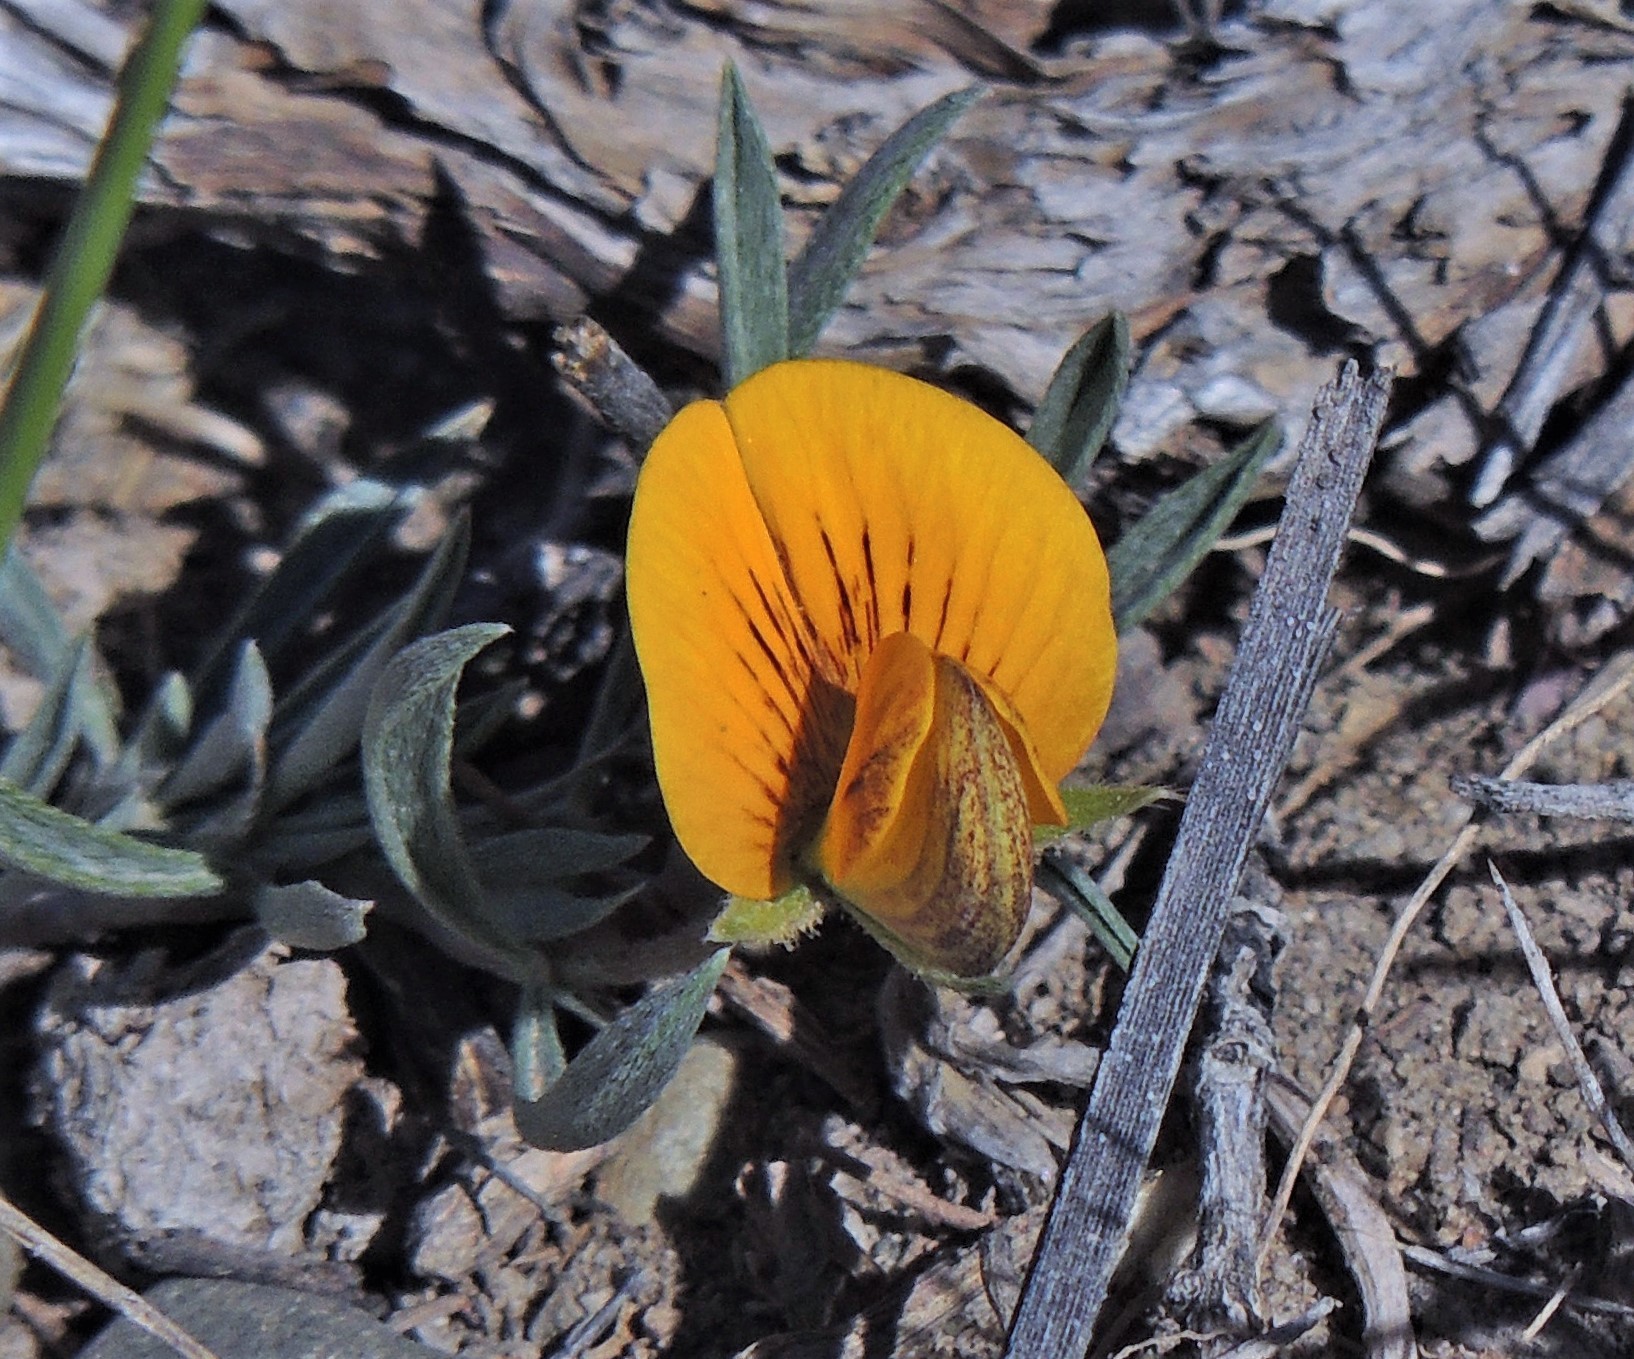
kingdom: Plantae
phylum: Tracheophyta
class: Magnoliopsida
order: Fabales
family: Fabaceae
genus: Adesmia
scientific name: Adesmia lotoides
